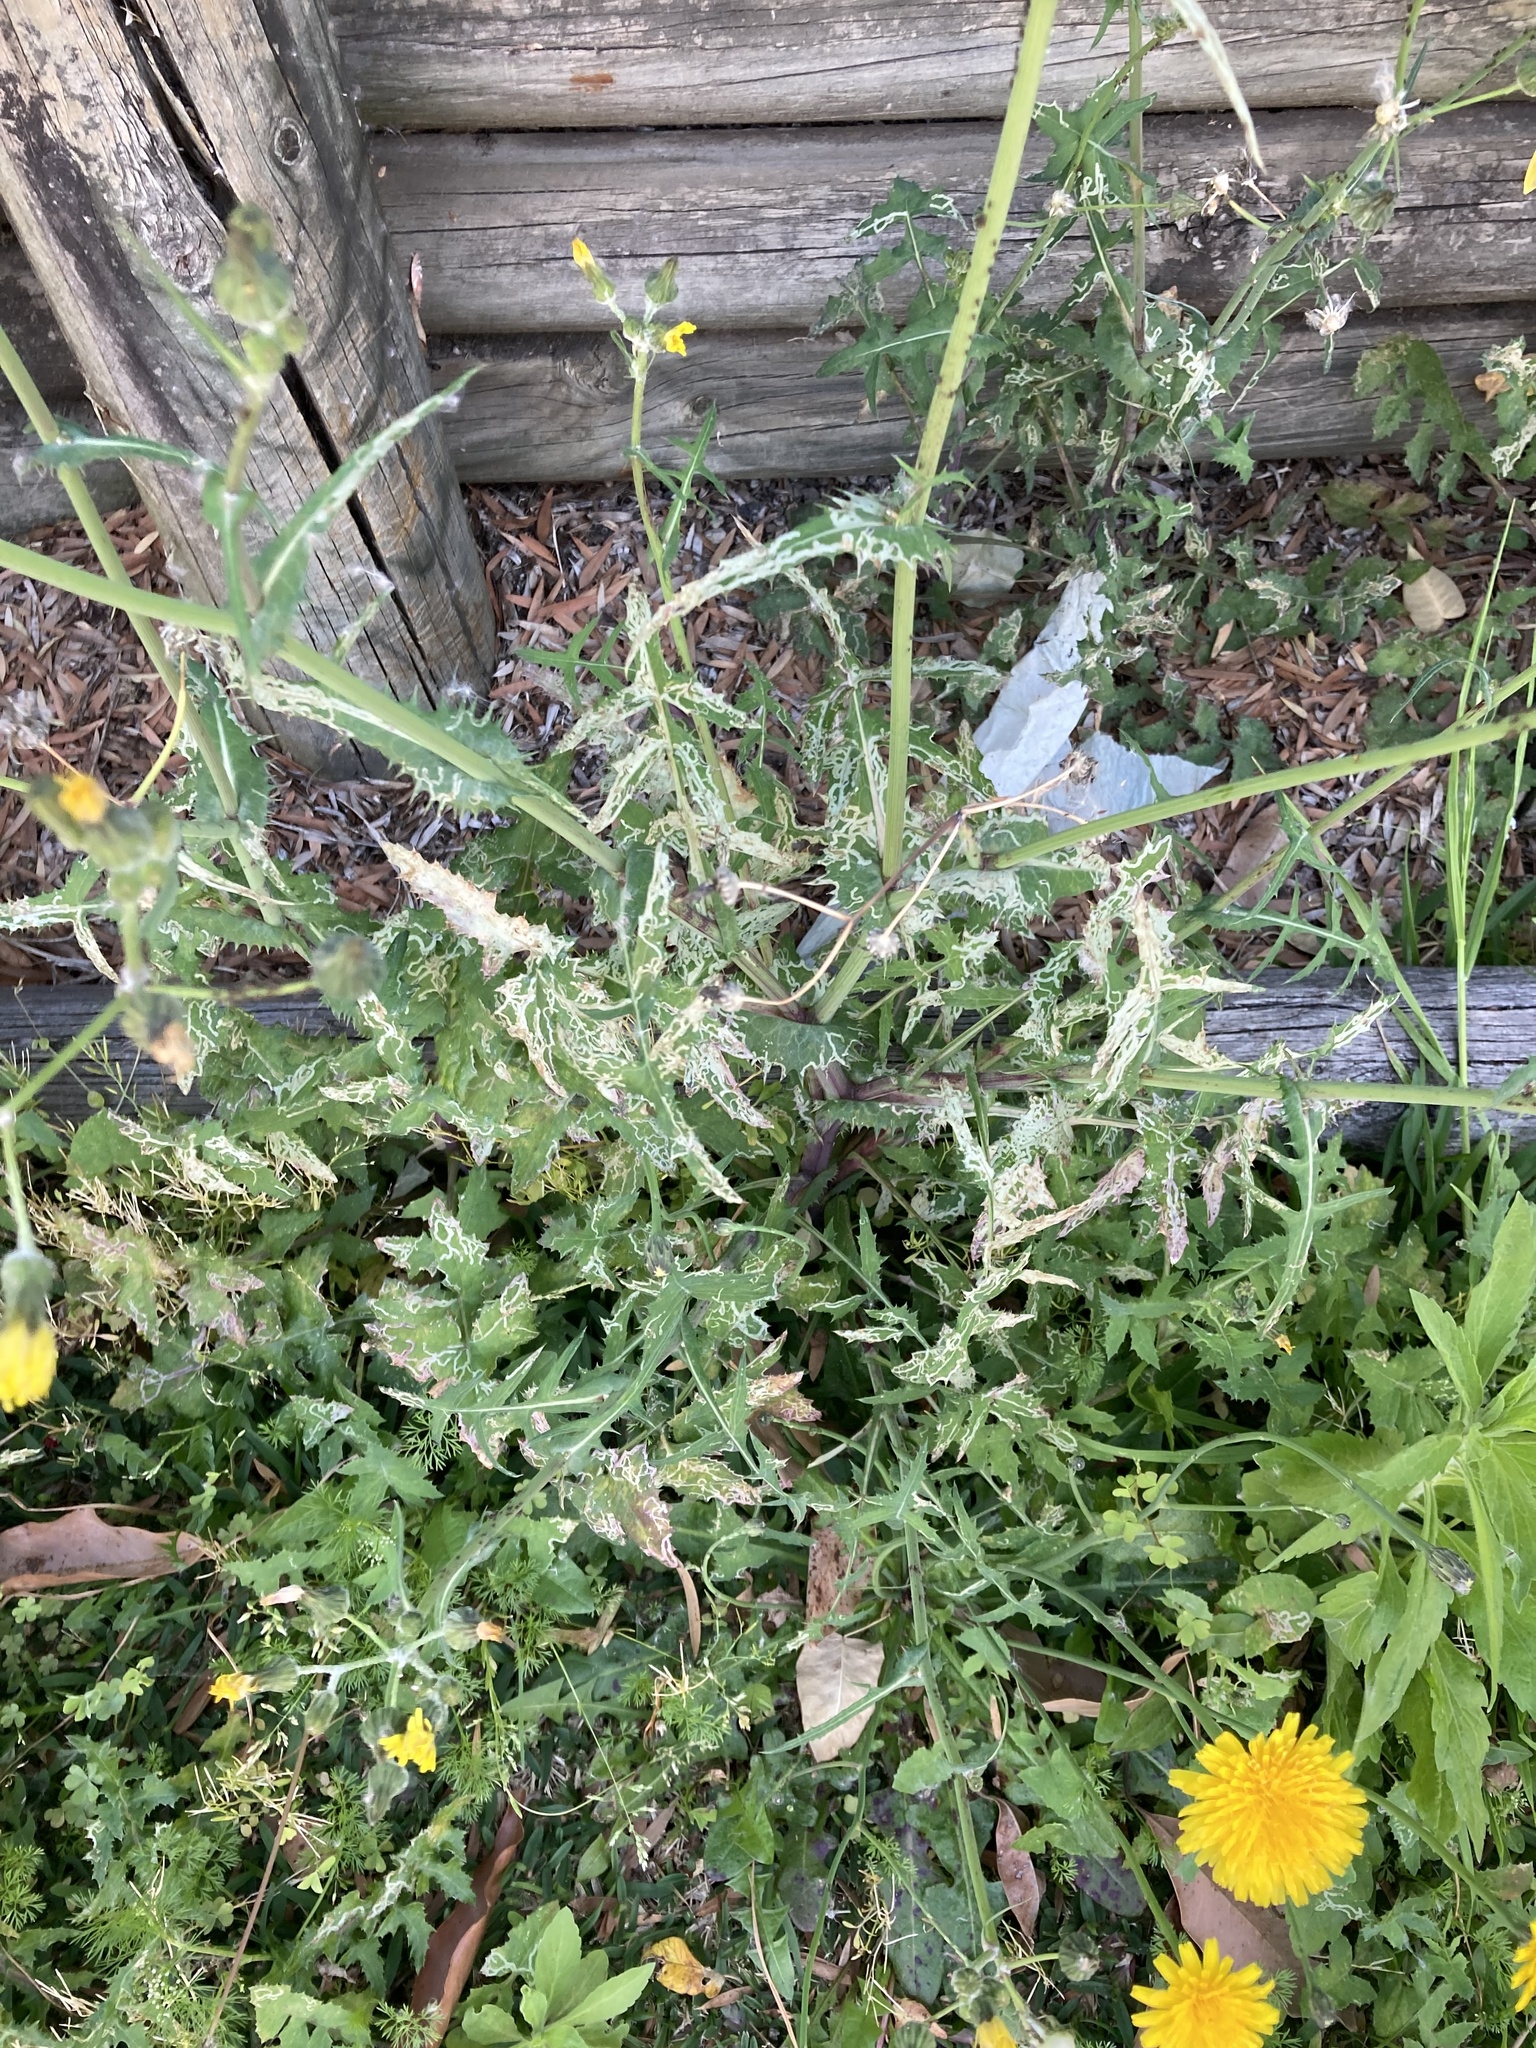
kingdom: Animalia
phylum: Arthropoda
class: Insecta
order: Diptera
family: Agromyzidae
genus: Phytomyza
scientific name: Phytomyza syngenesiae
